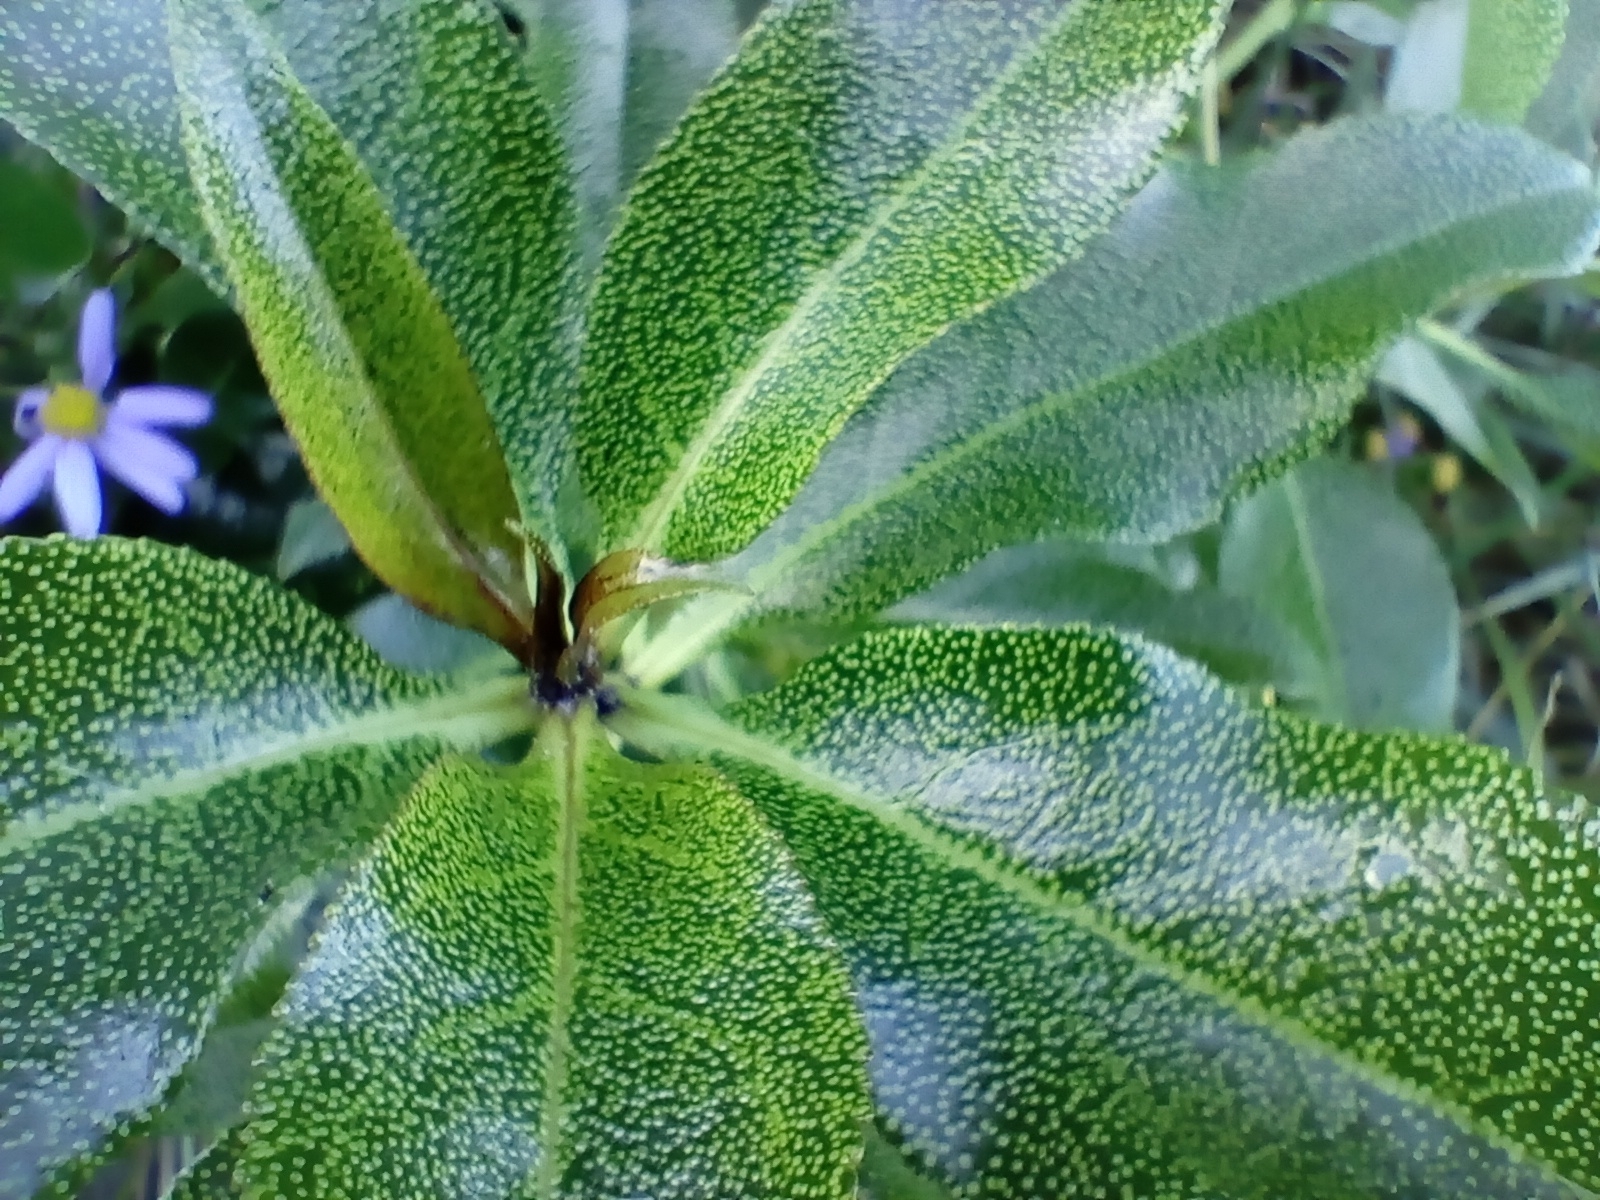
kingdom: Plantae
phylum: Tracheophyta
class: Magnoliopsida
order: Lamiales
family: Scrophulariaceae
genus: Myoporum
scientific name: Myoporum laetum
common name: Ngaio tree
